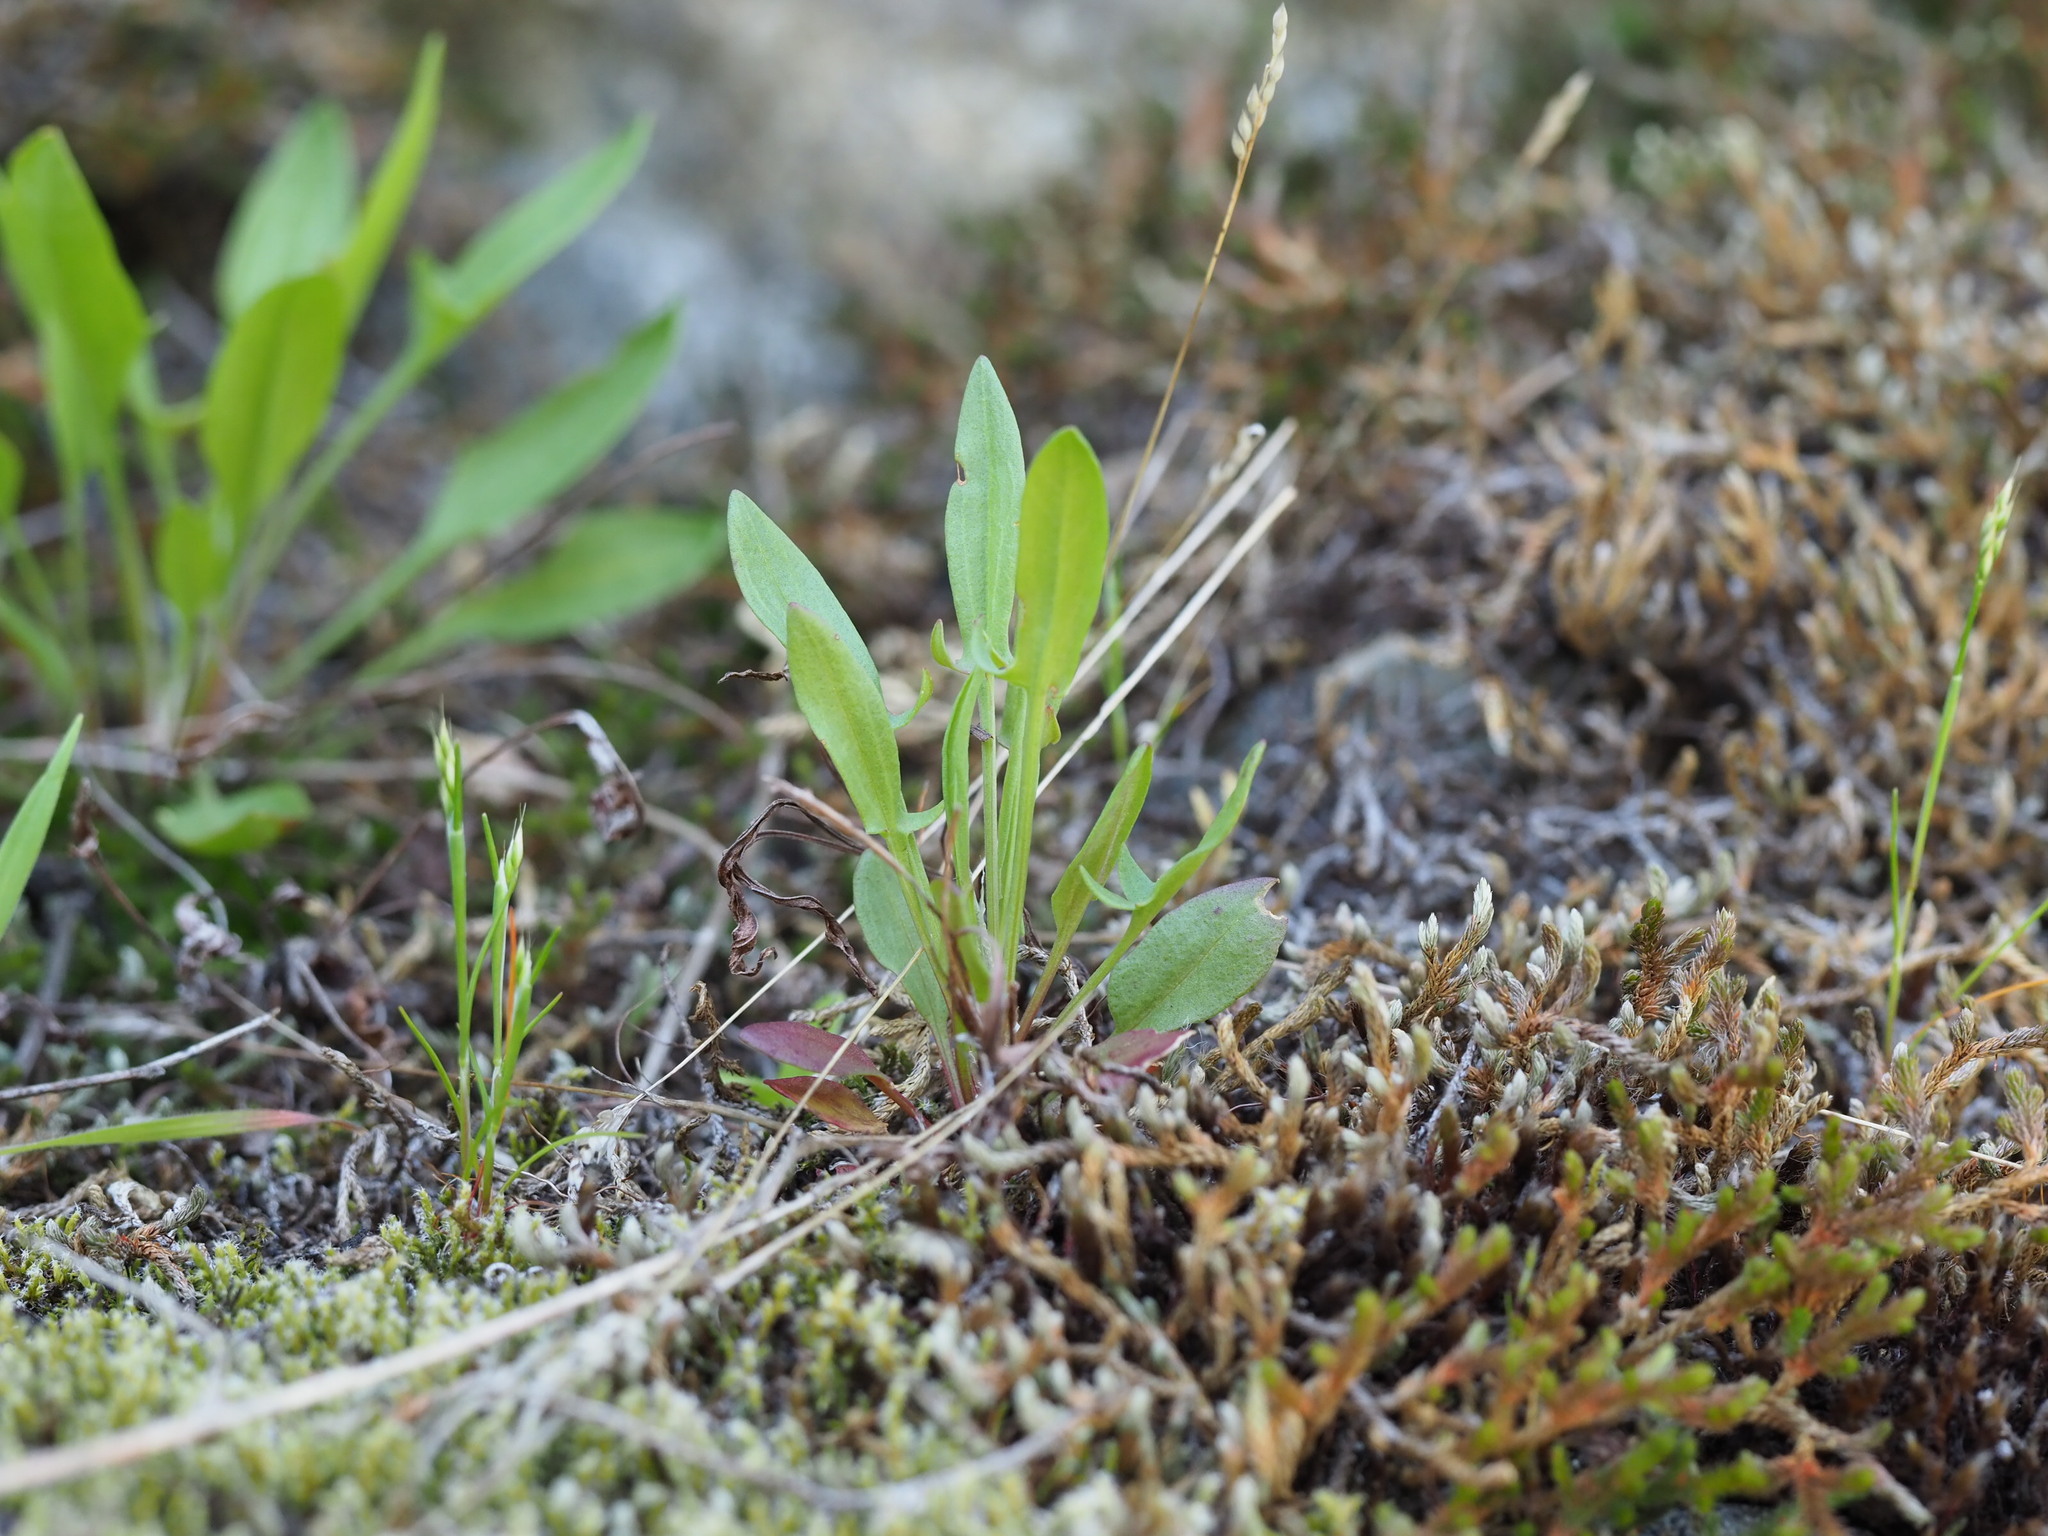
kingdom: Plantae
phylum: Tracheophyta
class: Magnoliopsida
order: Caryophyllales
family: Polygonaceae
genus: Rumex
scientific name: Rumex acetosella
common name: Common sheep sorrel
